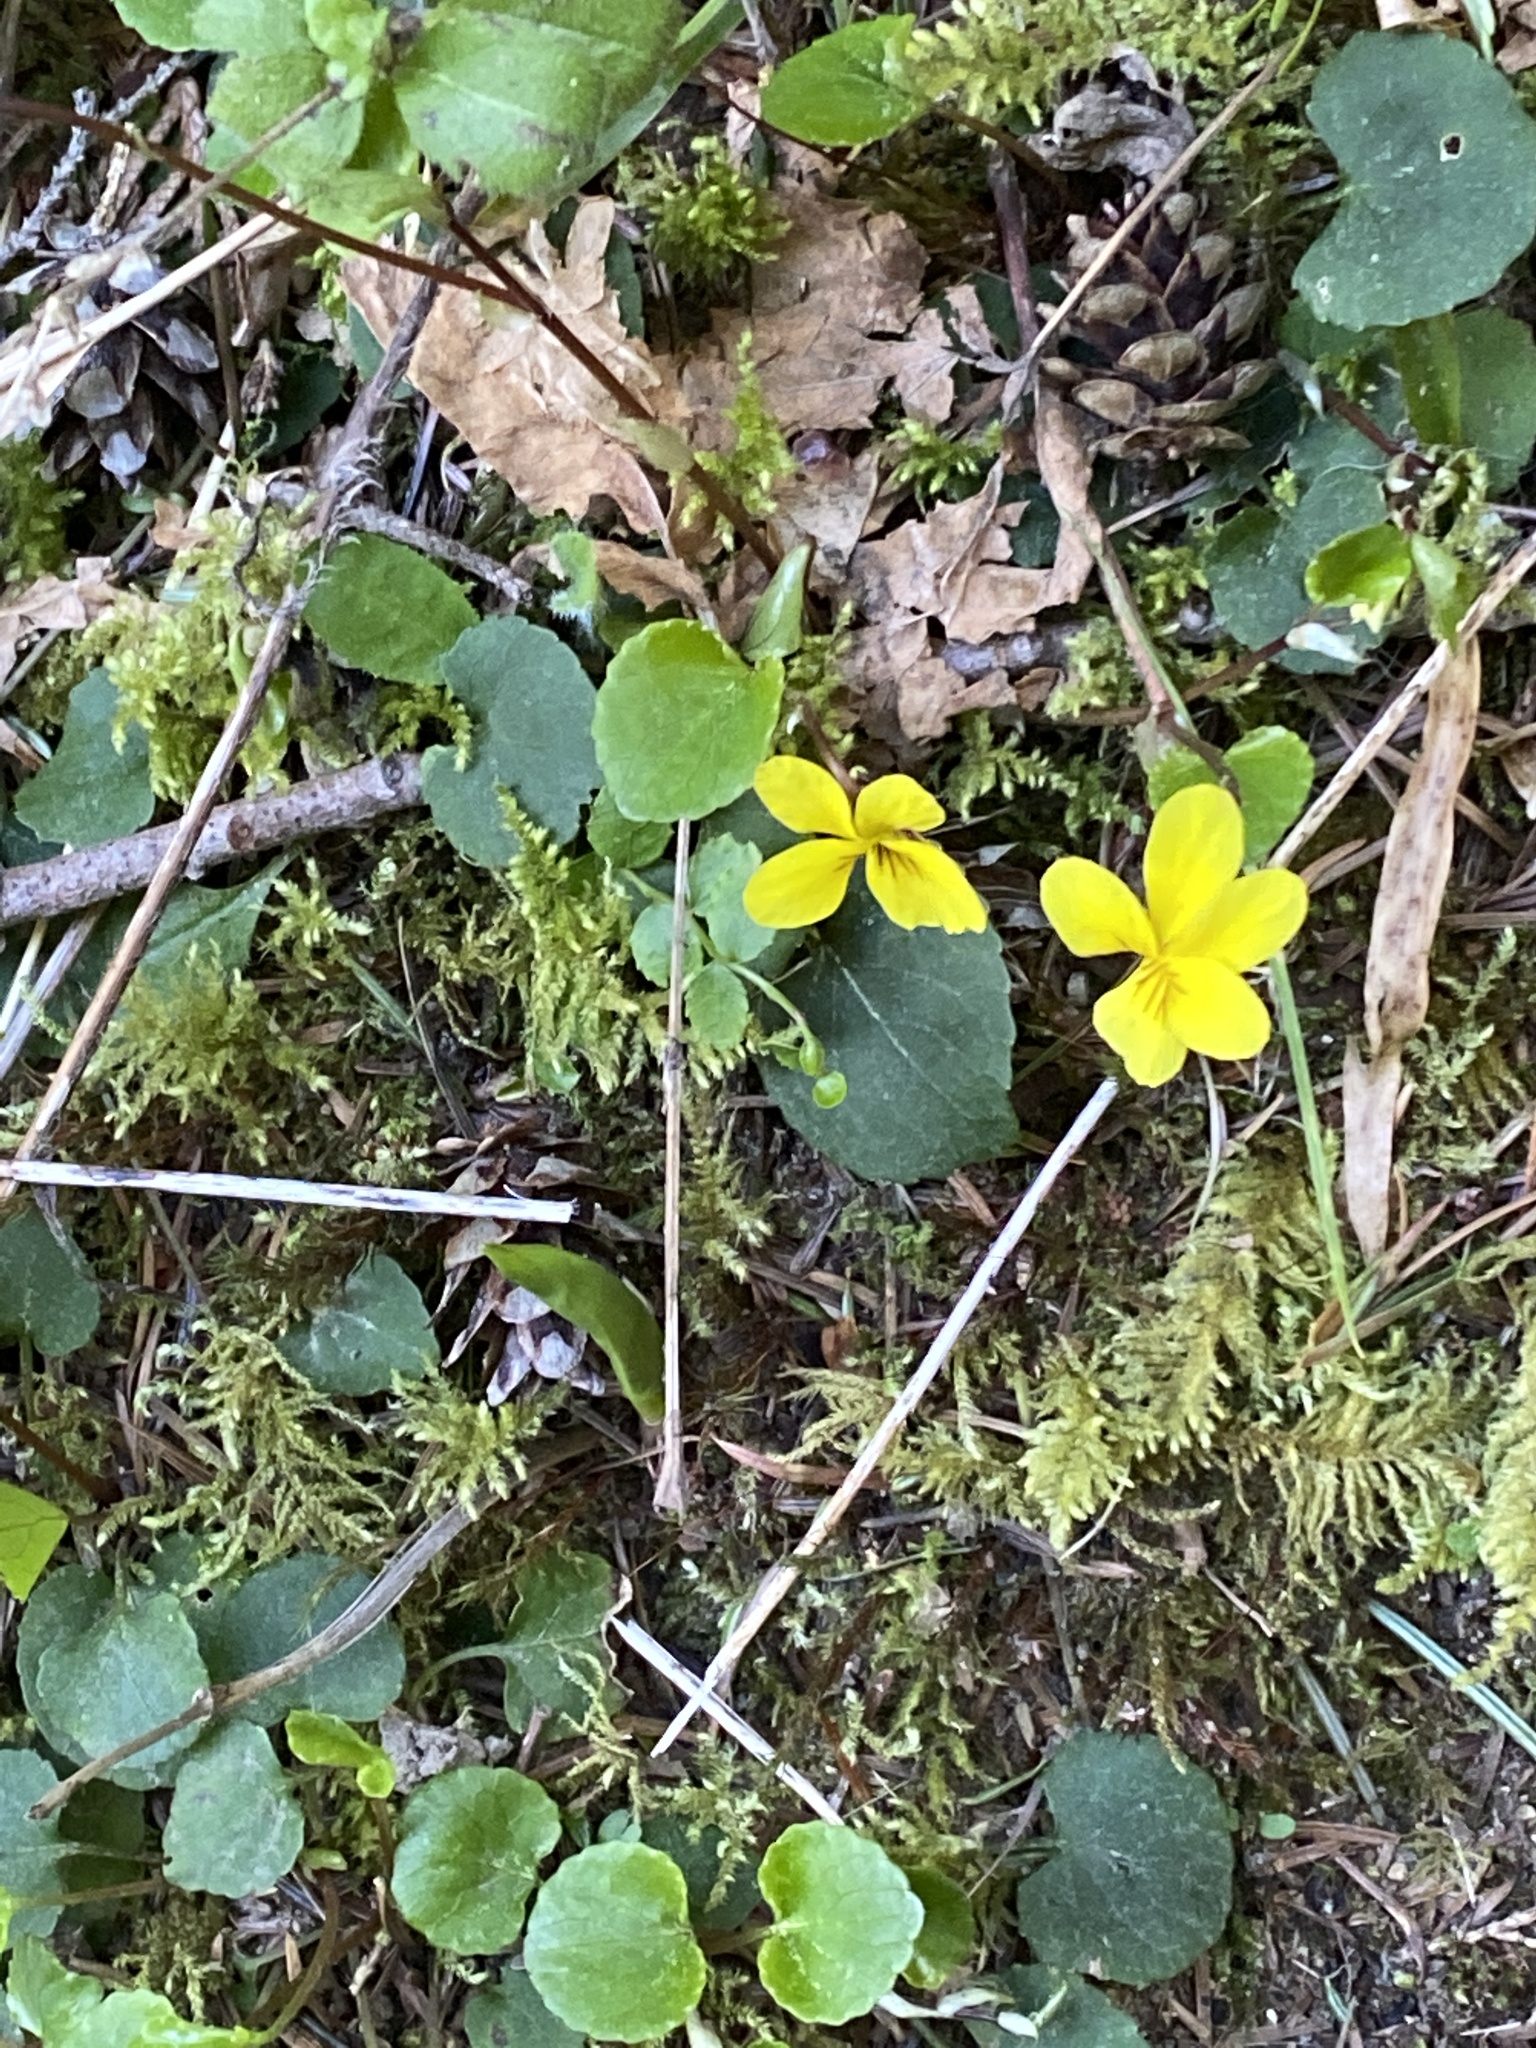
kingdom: Plantae
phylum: Tracheophyta
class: Magnoliopsida
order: Malpighiales
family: Violaceae
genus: Viola
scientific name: Viola sempervirens
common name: Evergreen violet
